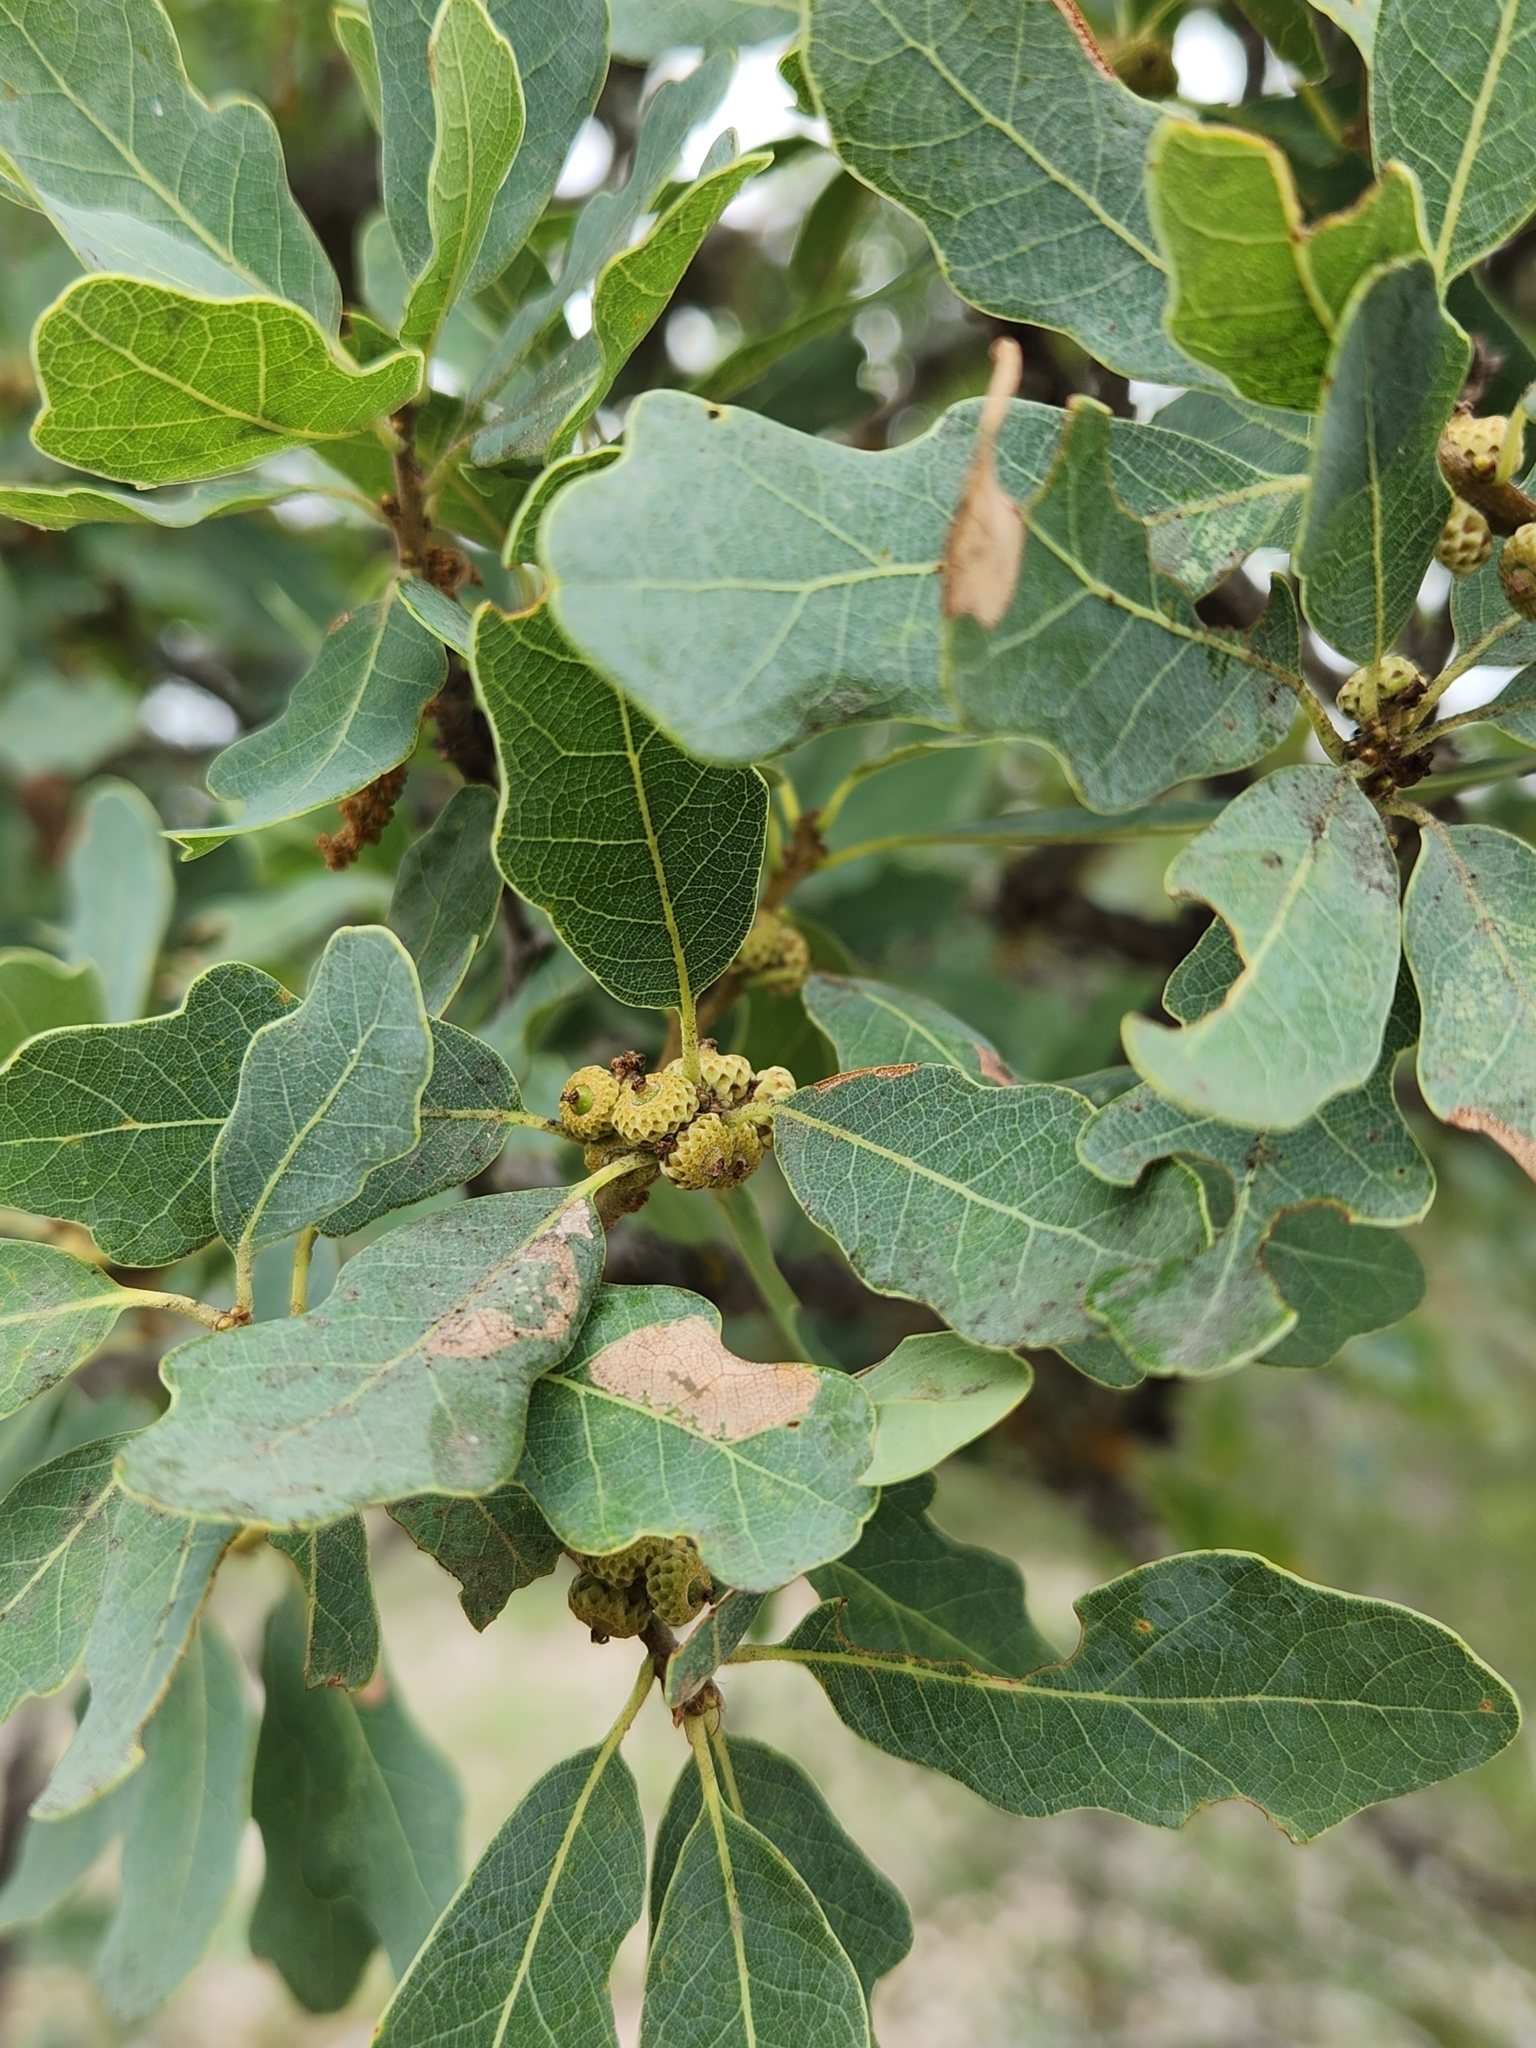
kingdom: Plantae
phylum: Tracheophyta
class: Magnoliopsida
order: Fagales
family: Fagaceae
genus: Quercus
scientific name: Quercus laceyi
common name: Lacey oak
